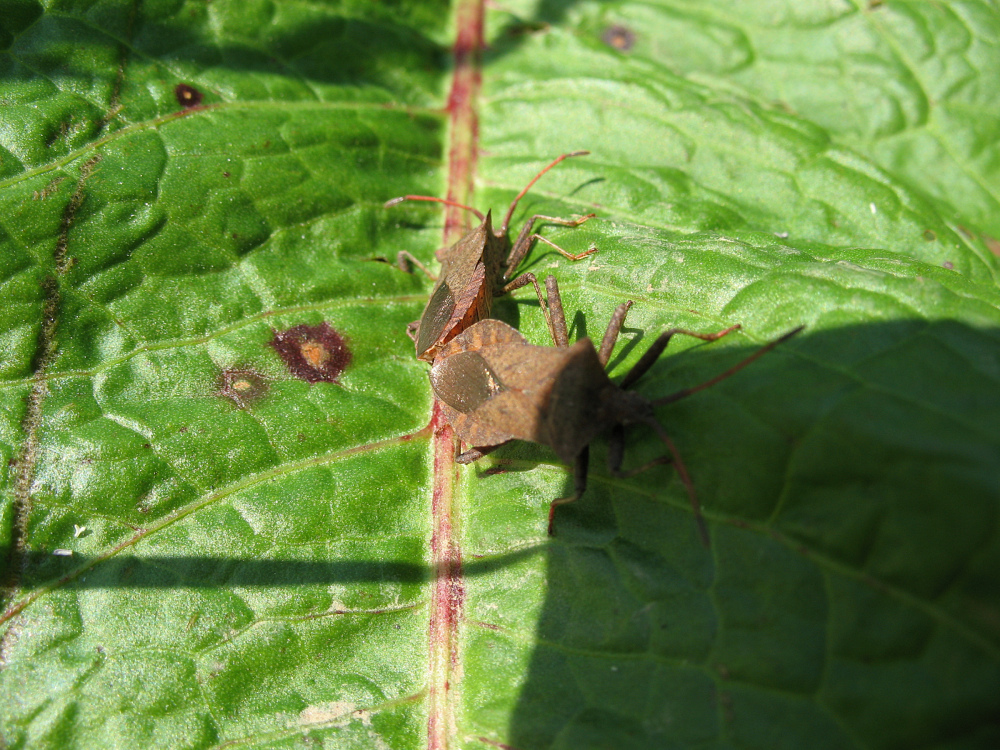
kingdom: Animalia
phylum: Arthropoda
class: Insecta
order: Hemiptera
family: Coreidae
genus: Coreus
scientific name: Coreus marginatus
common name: Dock bug
